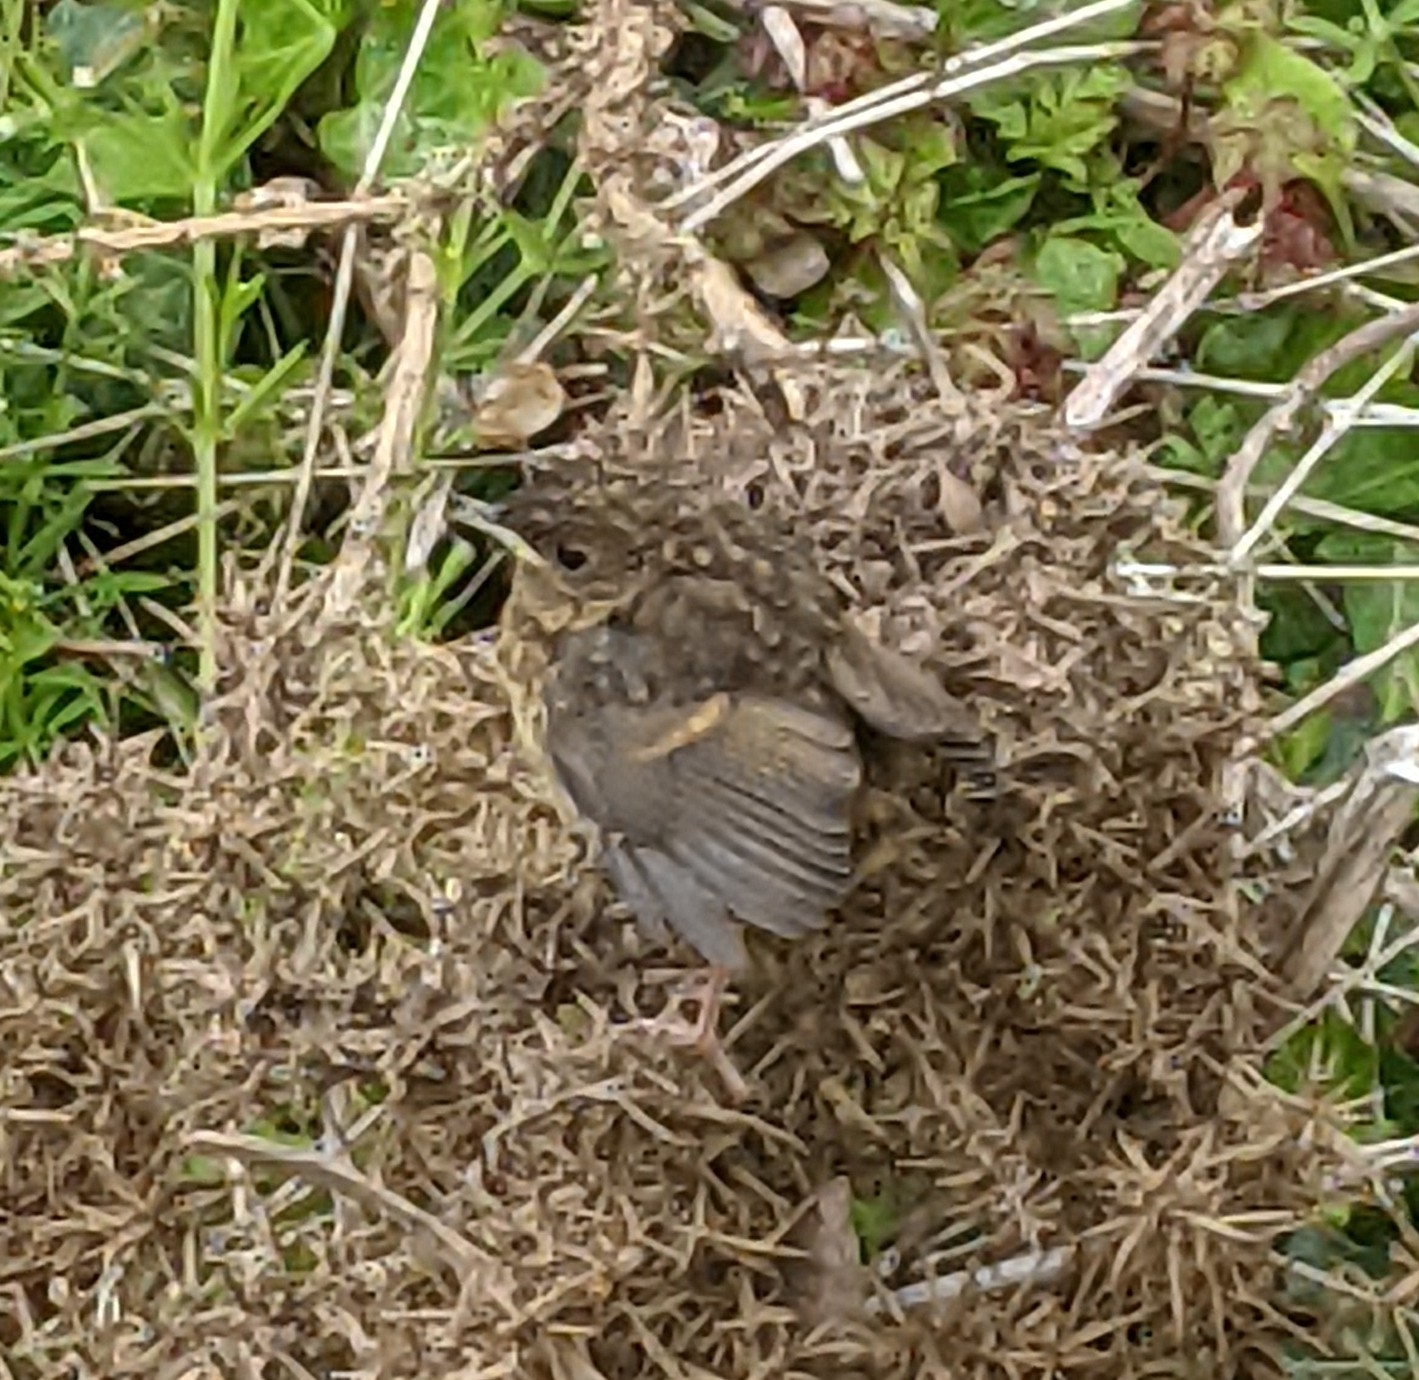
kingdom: Animalia
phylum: Chordata
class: Aves
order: Passeriformes
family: Muscicapidae
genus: Erithacus
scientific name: Erithacus rubecula
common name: European robin
